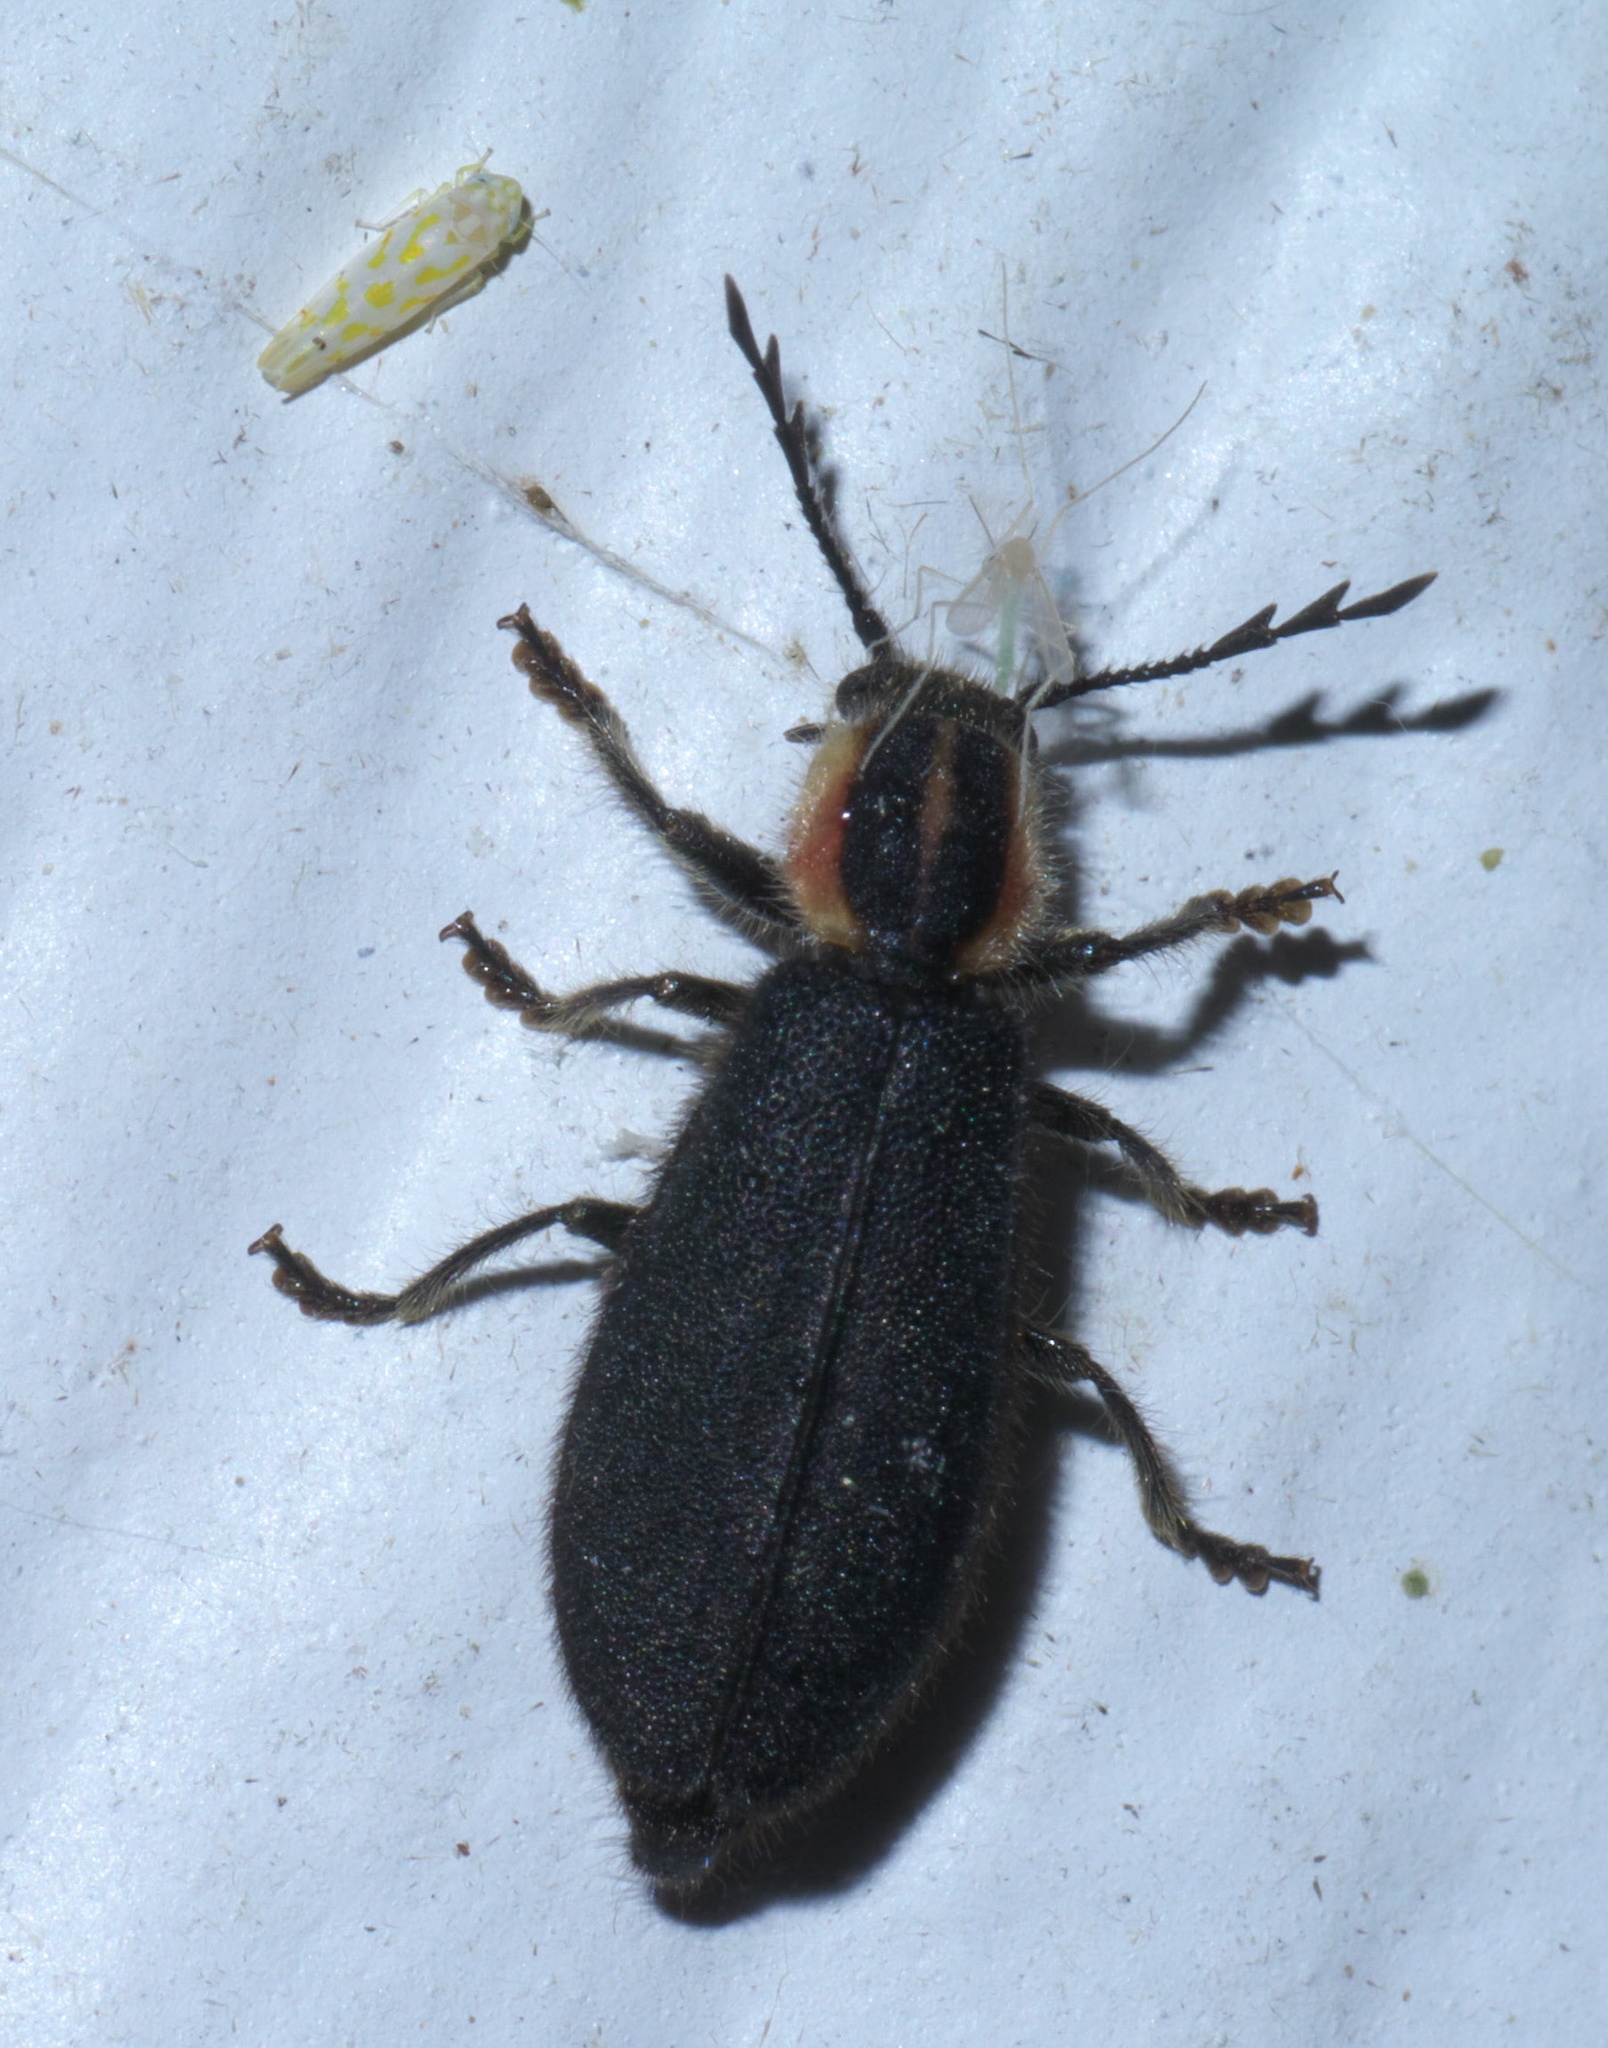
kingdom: Animalia
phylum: Arthropoda
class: Insecta
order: Coleoptera
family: Cleridae
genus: Chariessa
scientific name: Chariessa pilosa
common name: Pilose checkered beetle
